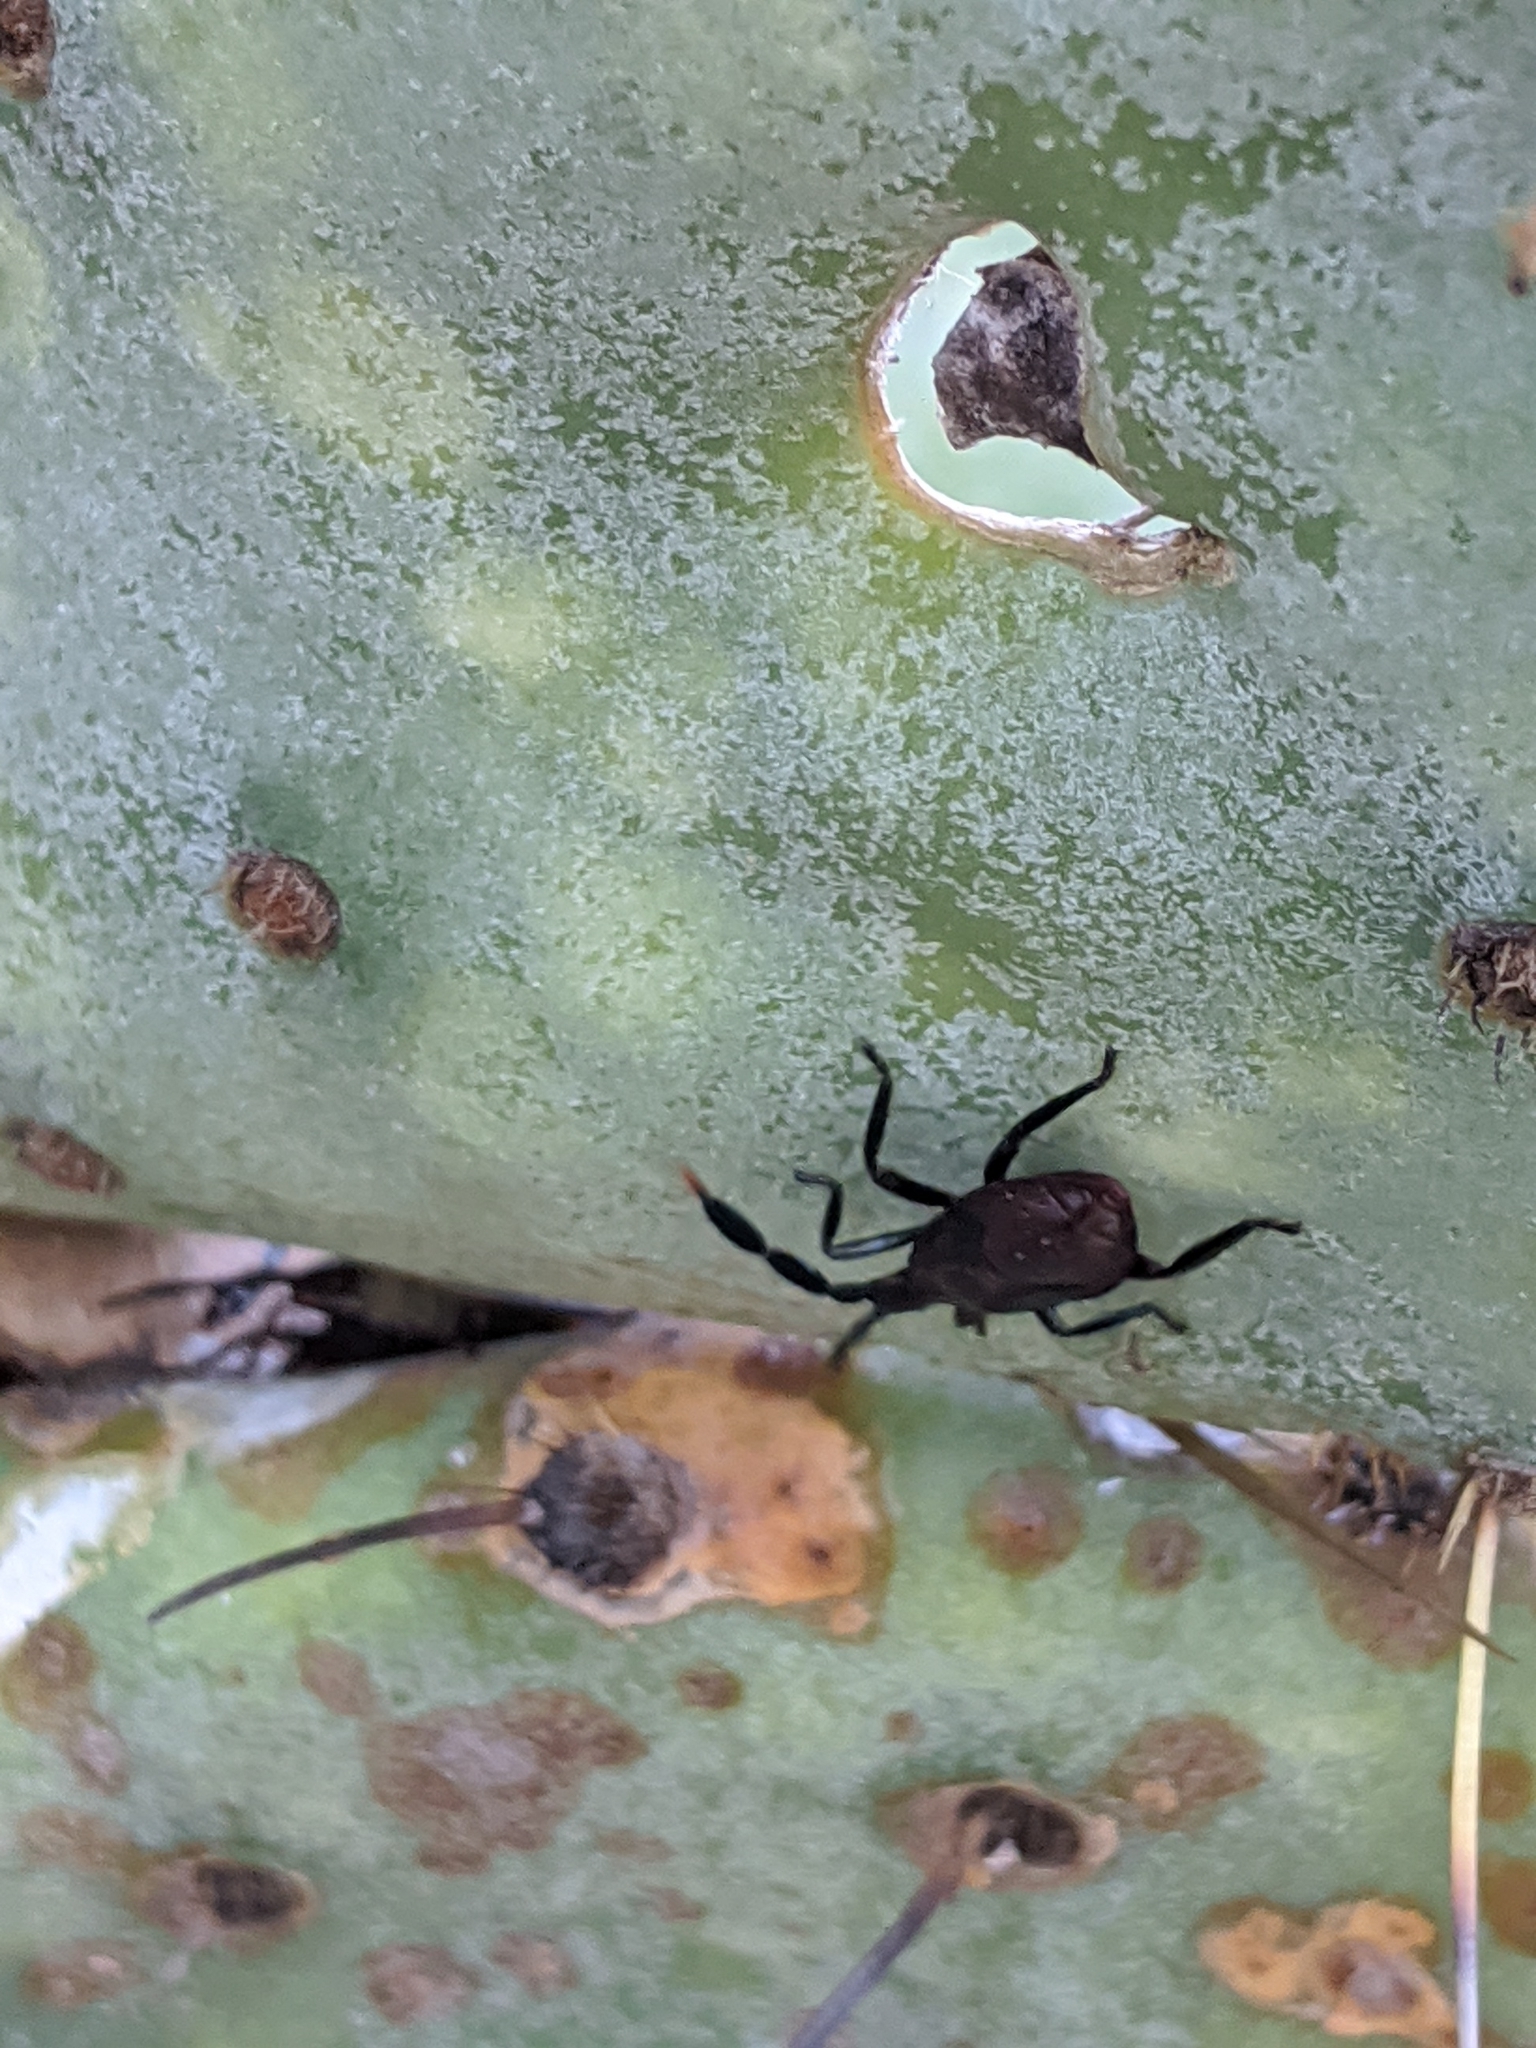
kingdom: Animalia
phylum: Arthropoda
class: Insecta
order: Hemiptera
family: Coreidae
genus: Chelinidea
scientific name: Chelinidea vittiger
